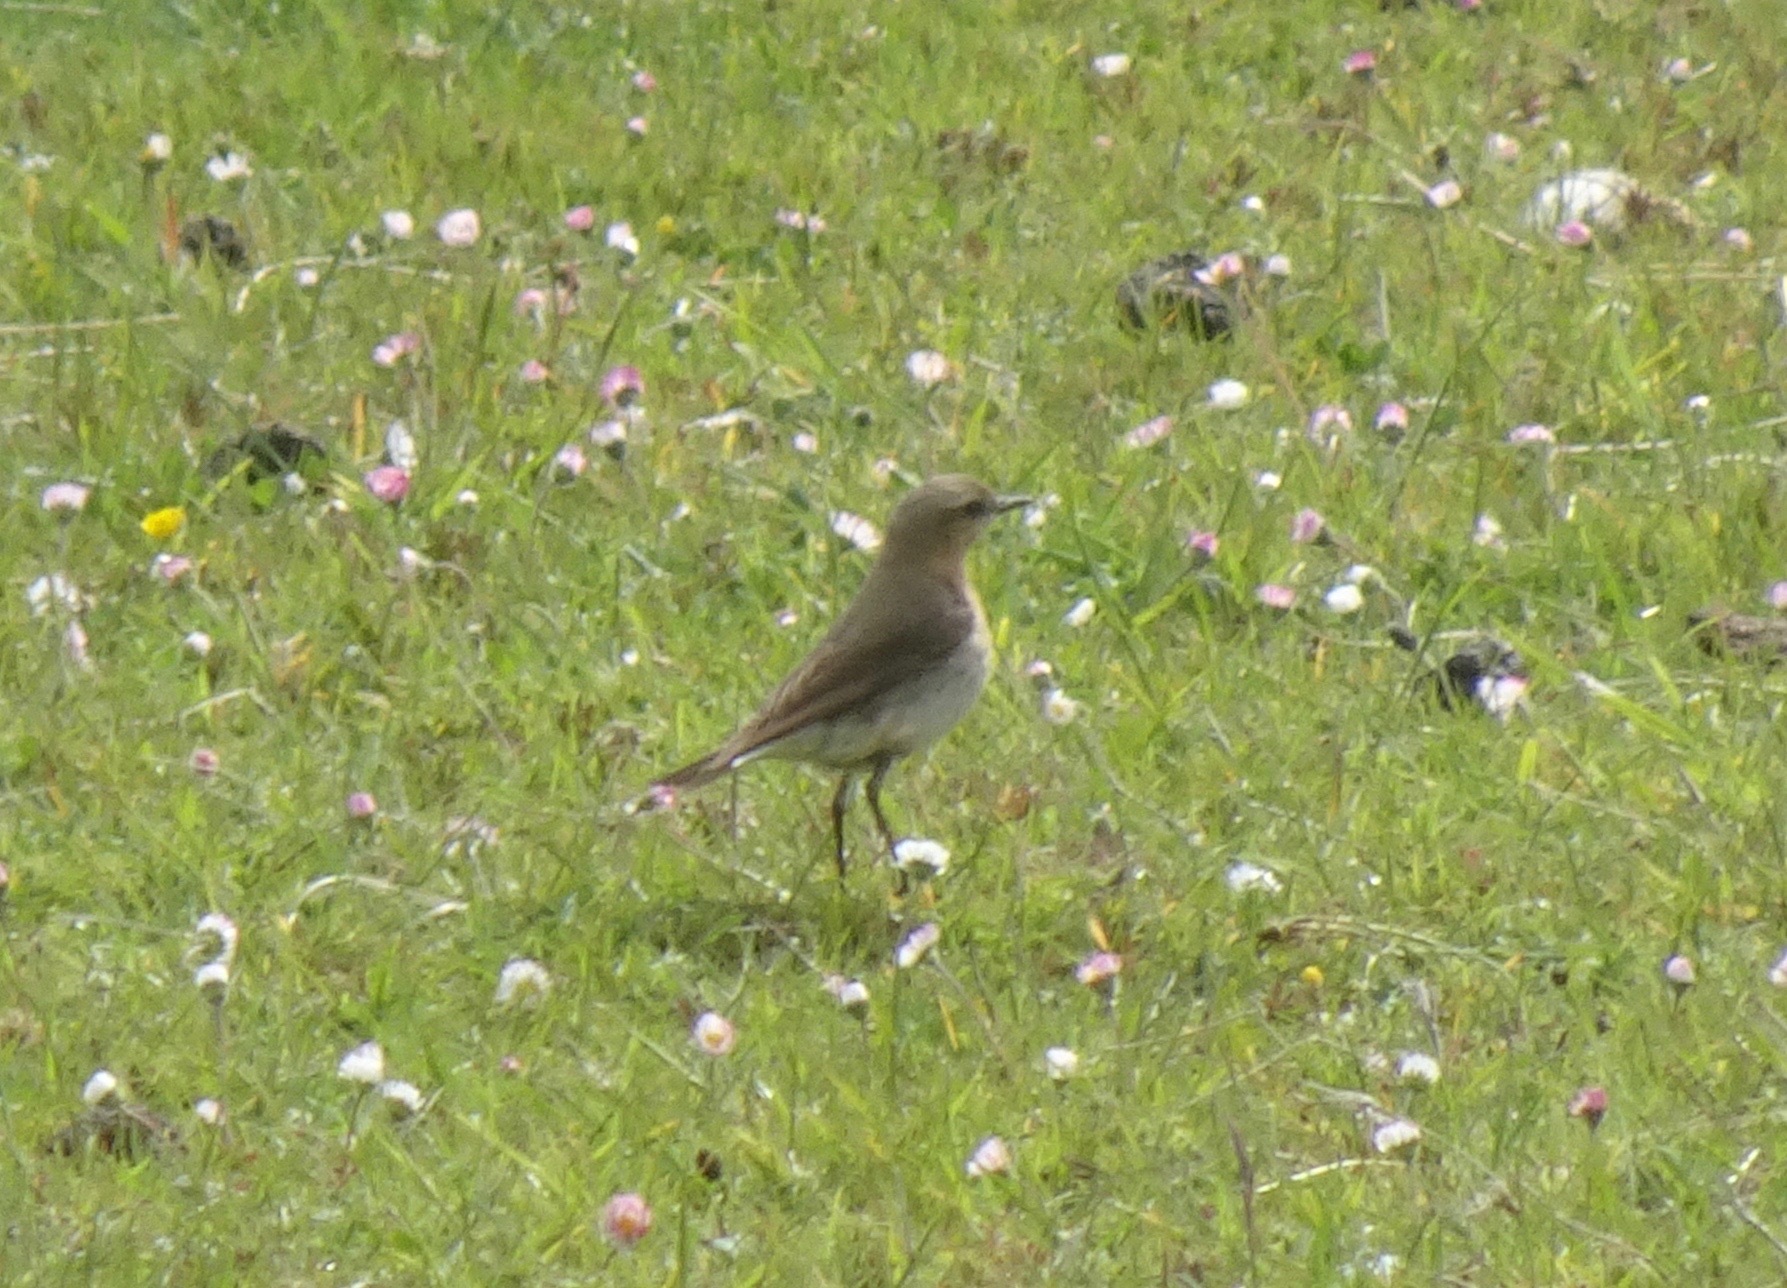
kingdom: Animalia
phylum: Chordata
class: Aves
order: Passeriformes
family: Muscicapidae
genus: Oenanthe
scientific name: Oenanthe oenanthe
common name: Northern wheatear
